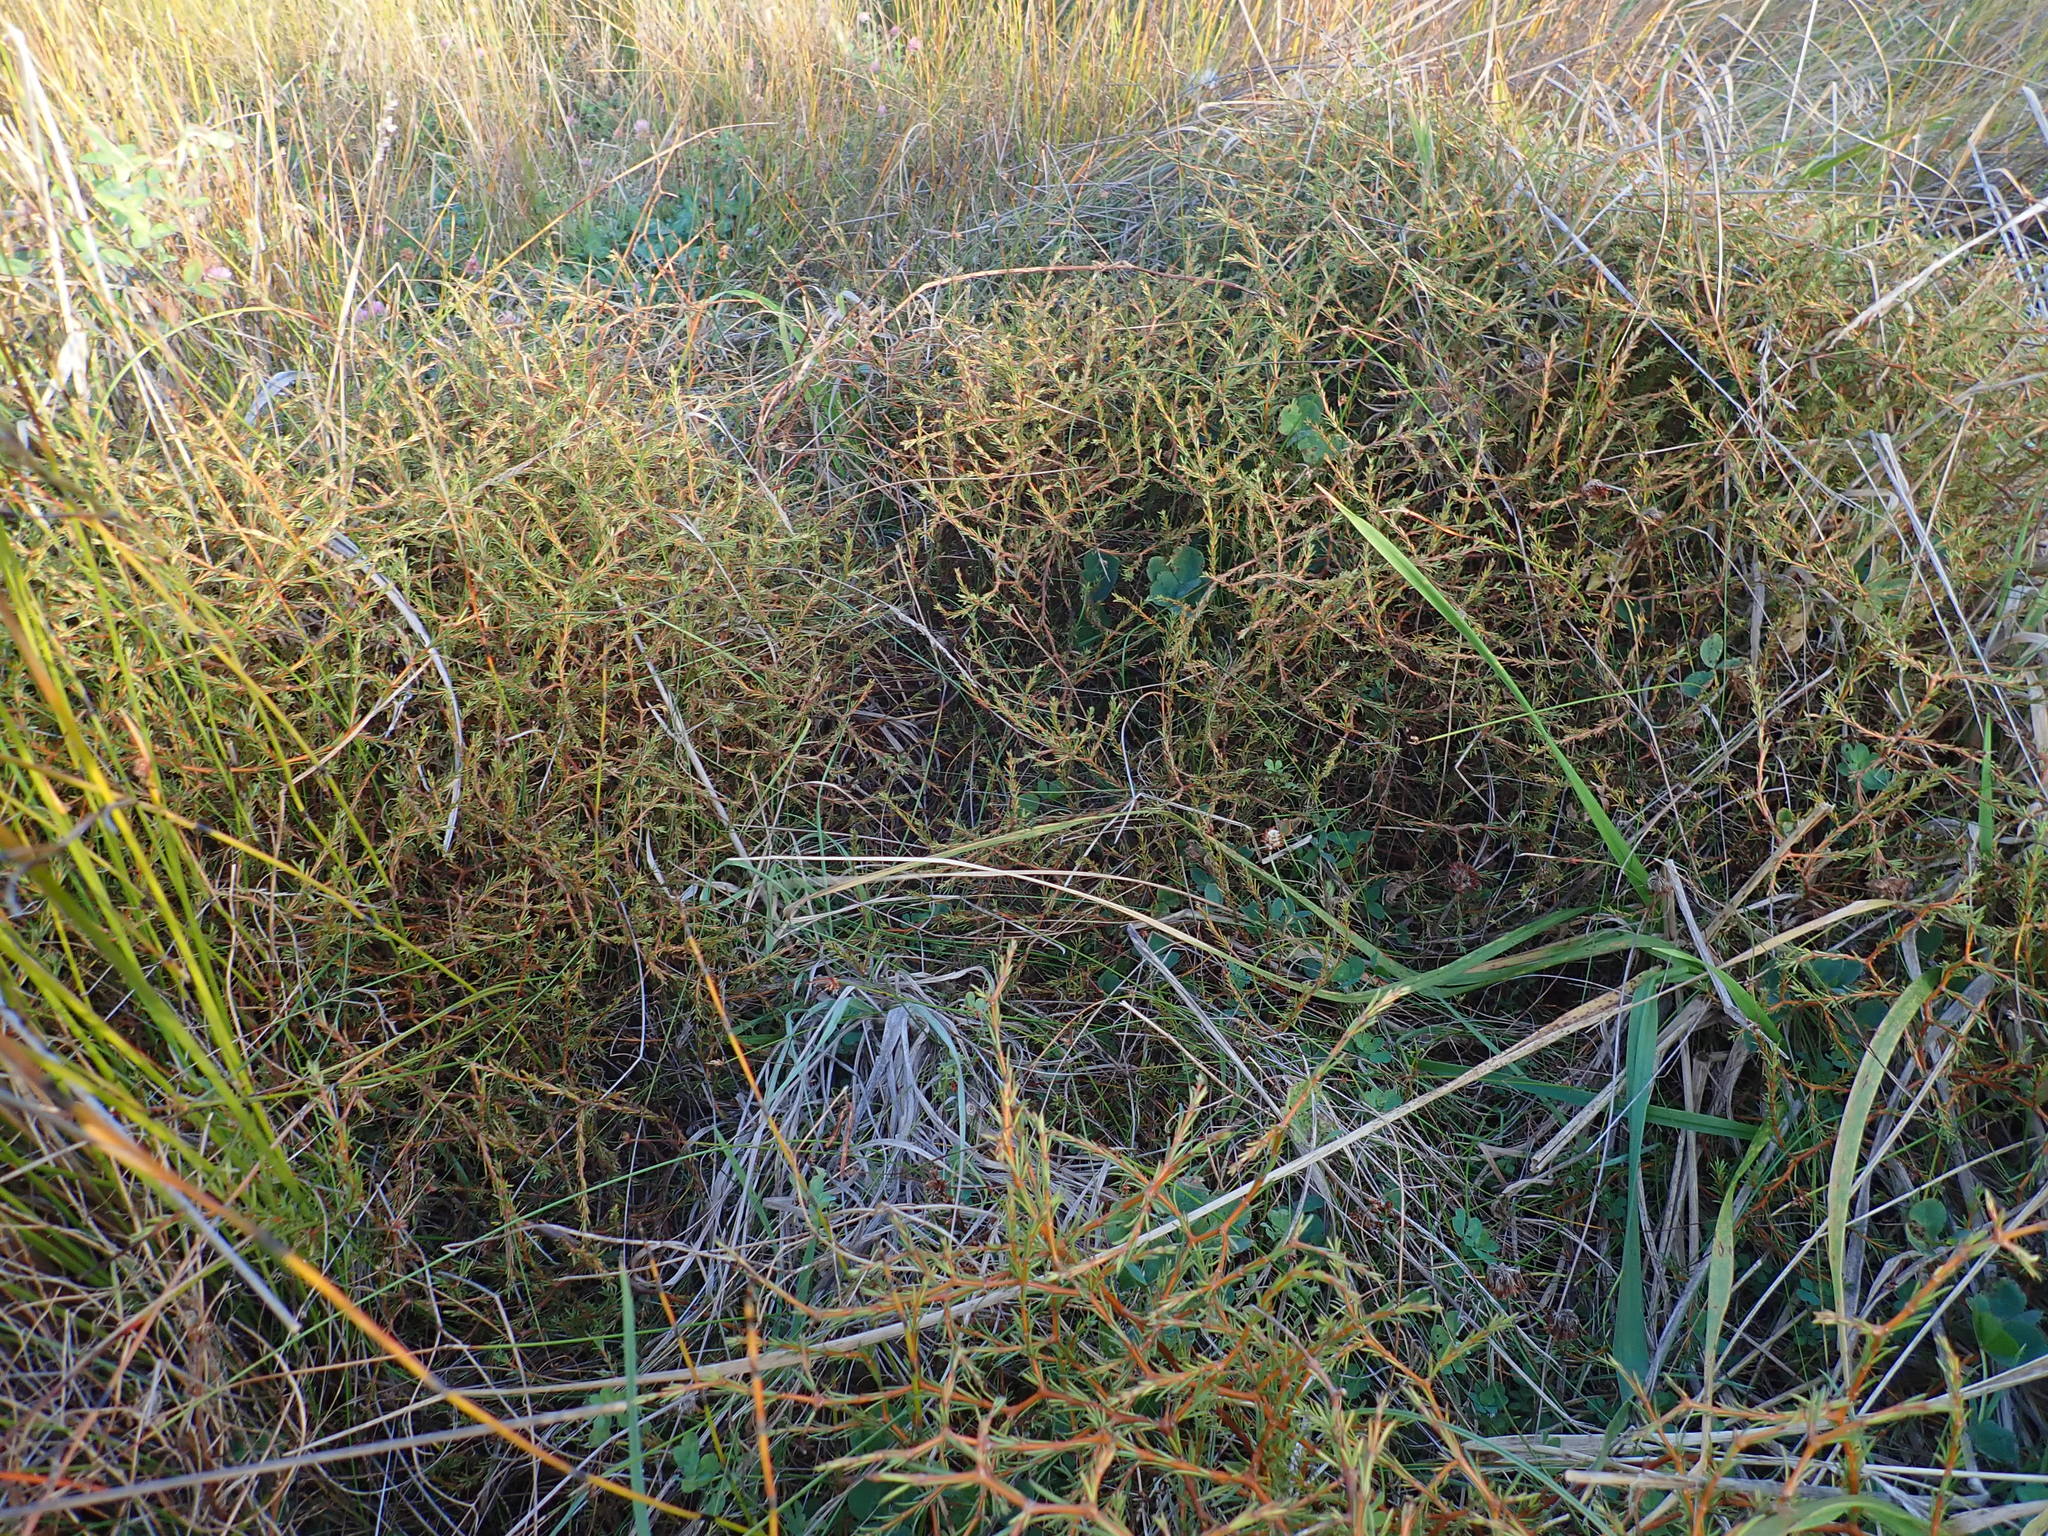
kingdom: Plantae
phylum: Tracheophyta
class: Magnoliopsida
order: Gentianales
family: Rubiaceae
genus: Coprosma
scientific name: Coprosma acerosa
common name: Sand coprosma
